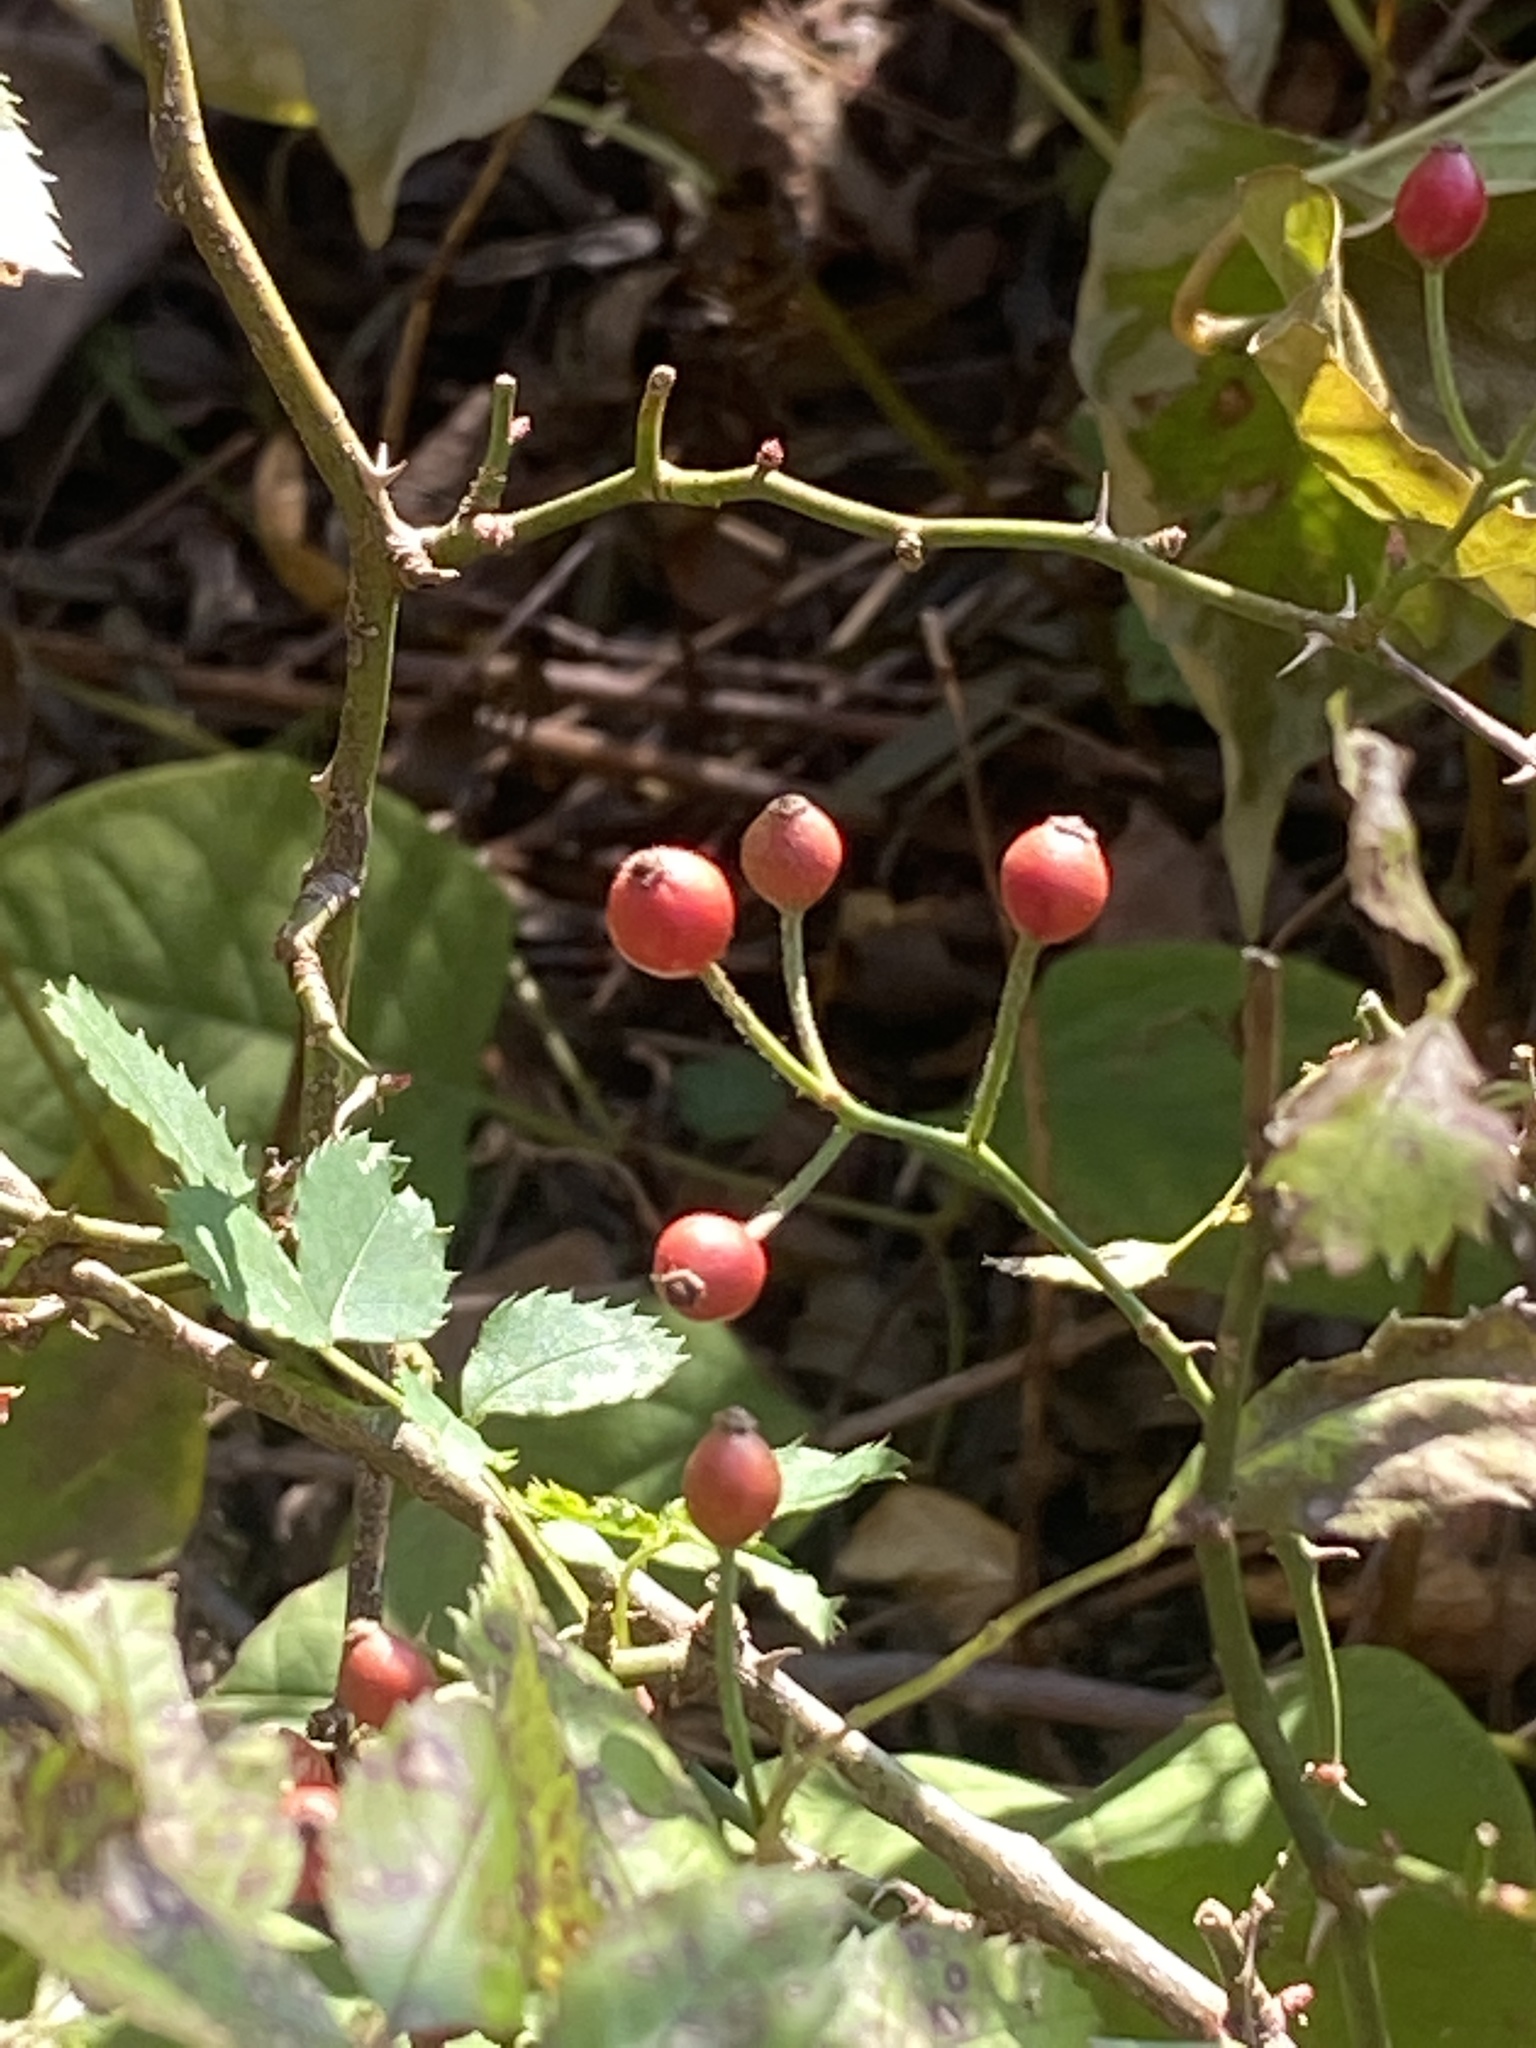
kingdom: Plantae
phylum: Tracheophyta
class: Magnoliopsida
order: Rosales
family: Rosaceae
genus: Rosa
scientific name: Rosa multiflora
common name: Multiflora rose
